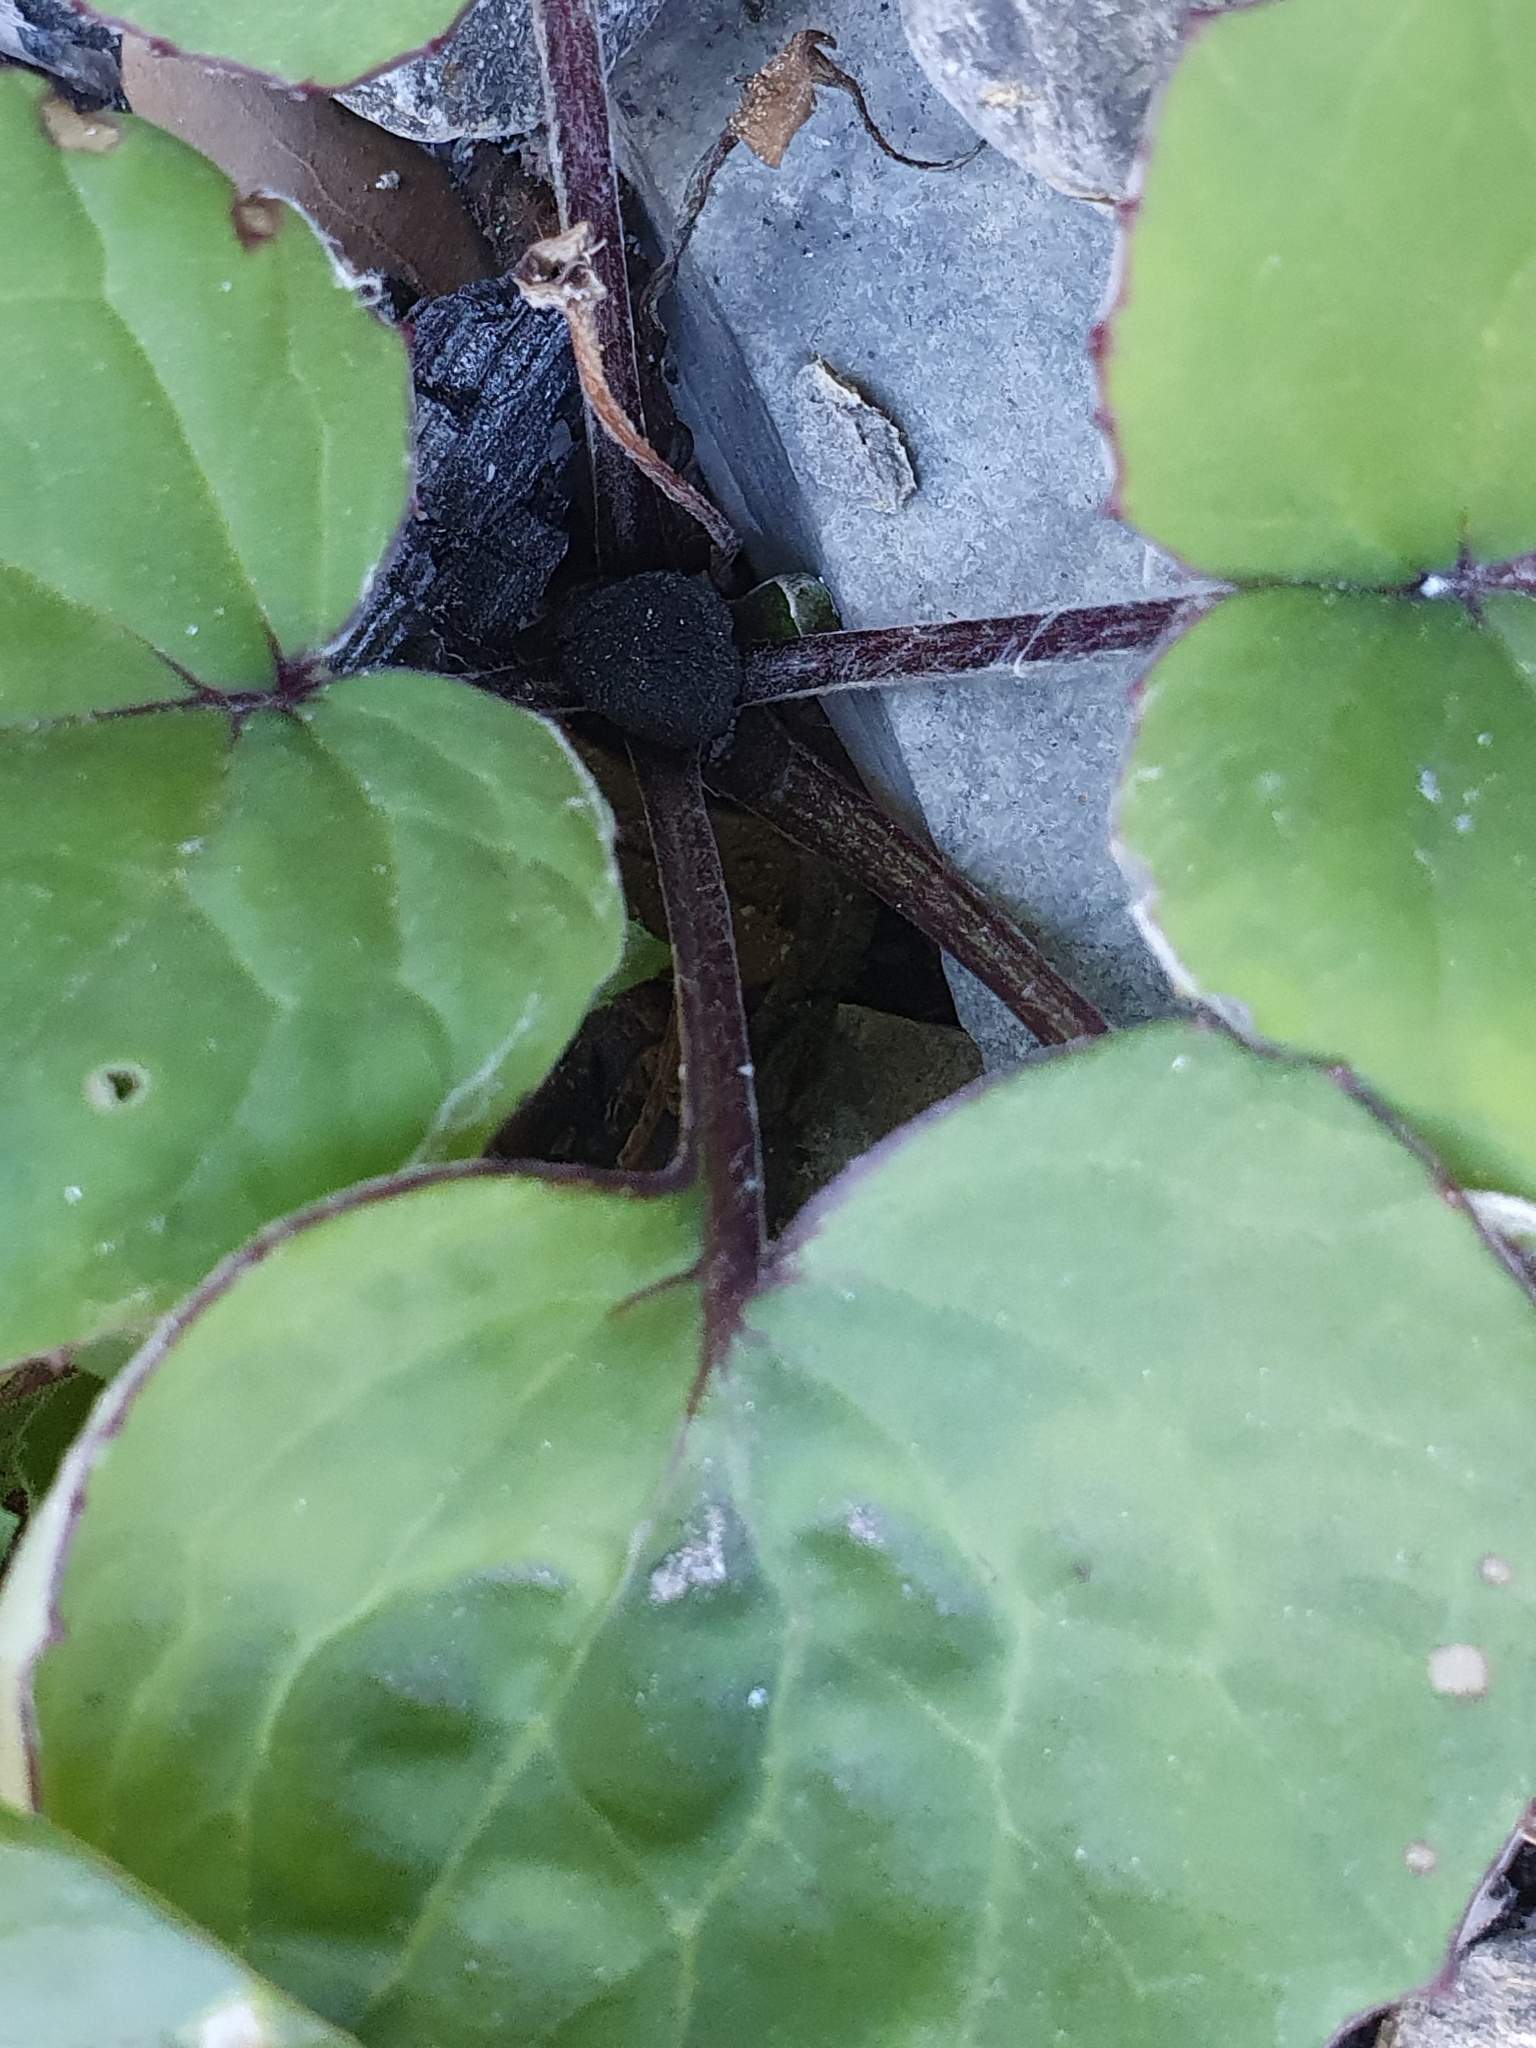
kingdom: Plantae
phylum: Tracheophyta
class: Magnoliopsida
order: Asterales
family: Asteraceae
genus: Tussilago
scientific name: Tussilago farfara
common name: Coltsfoot
